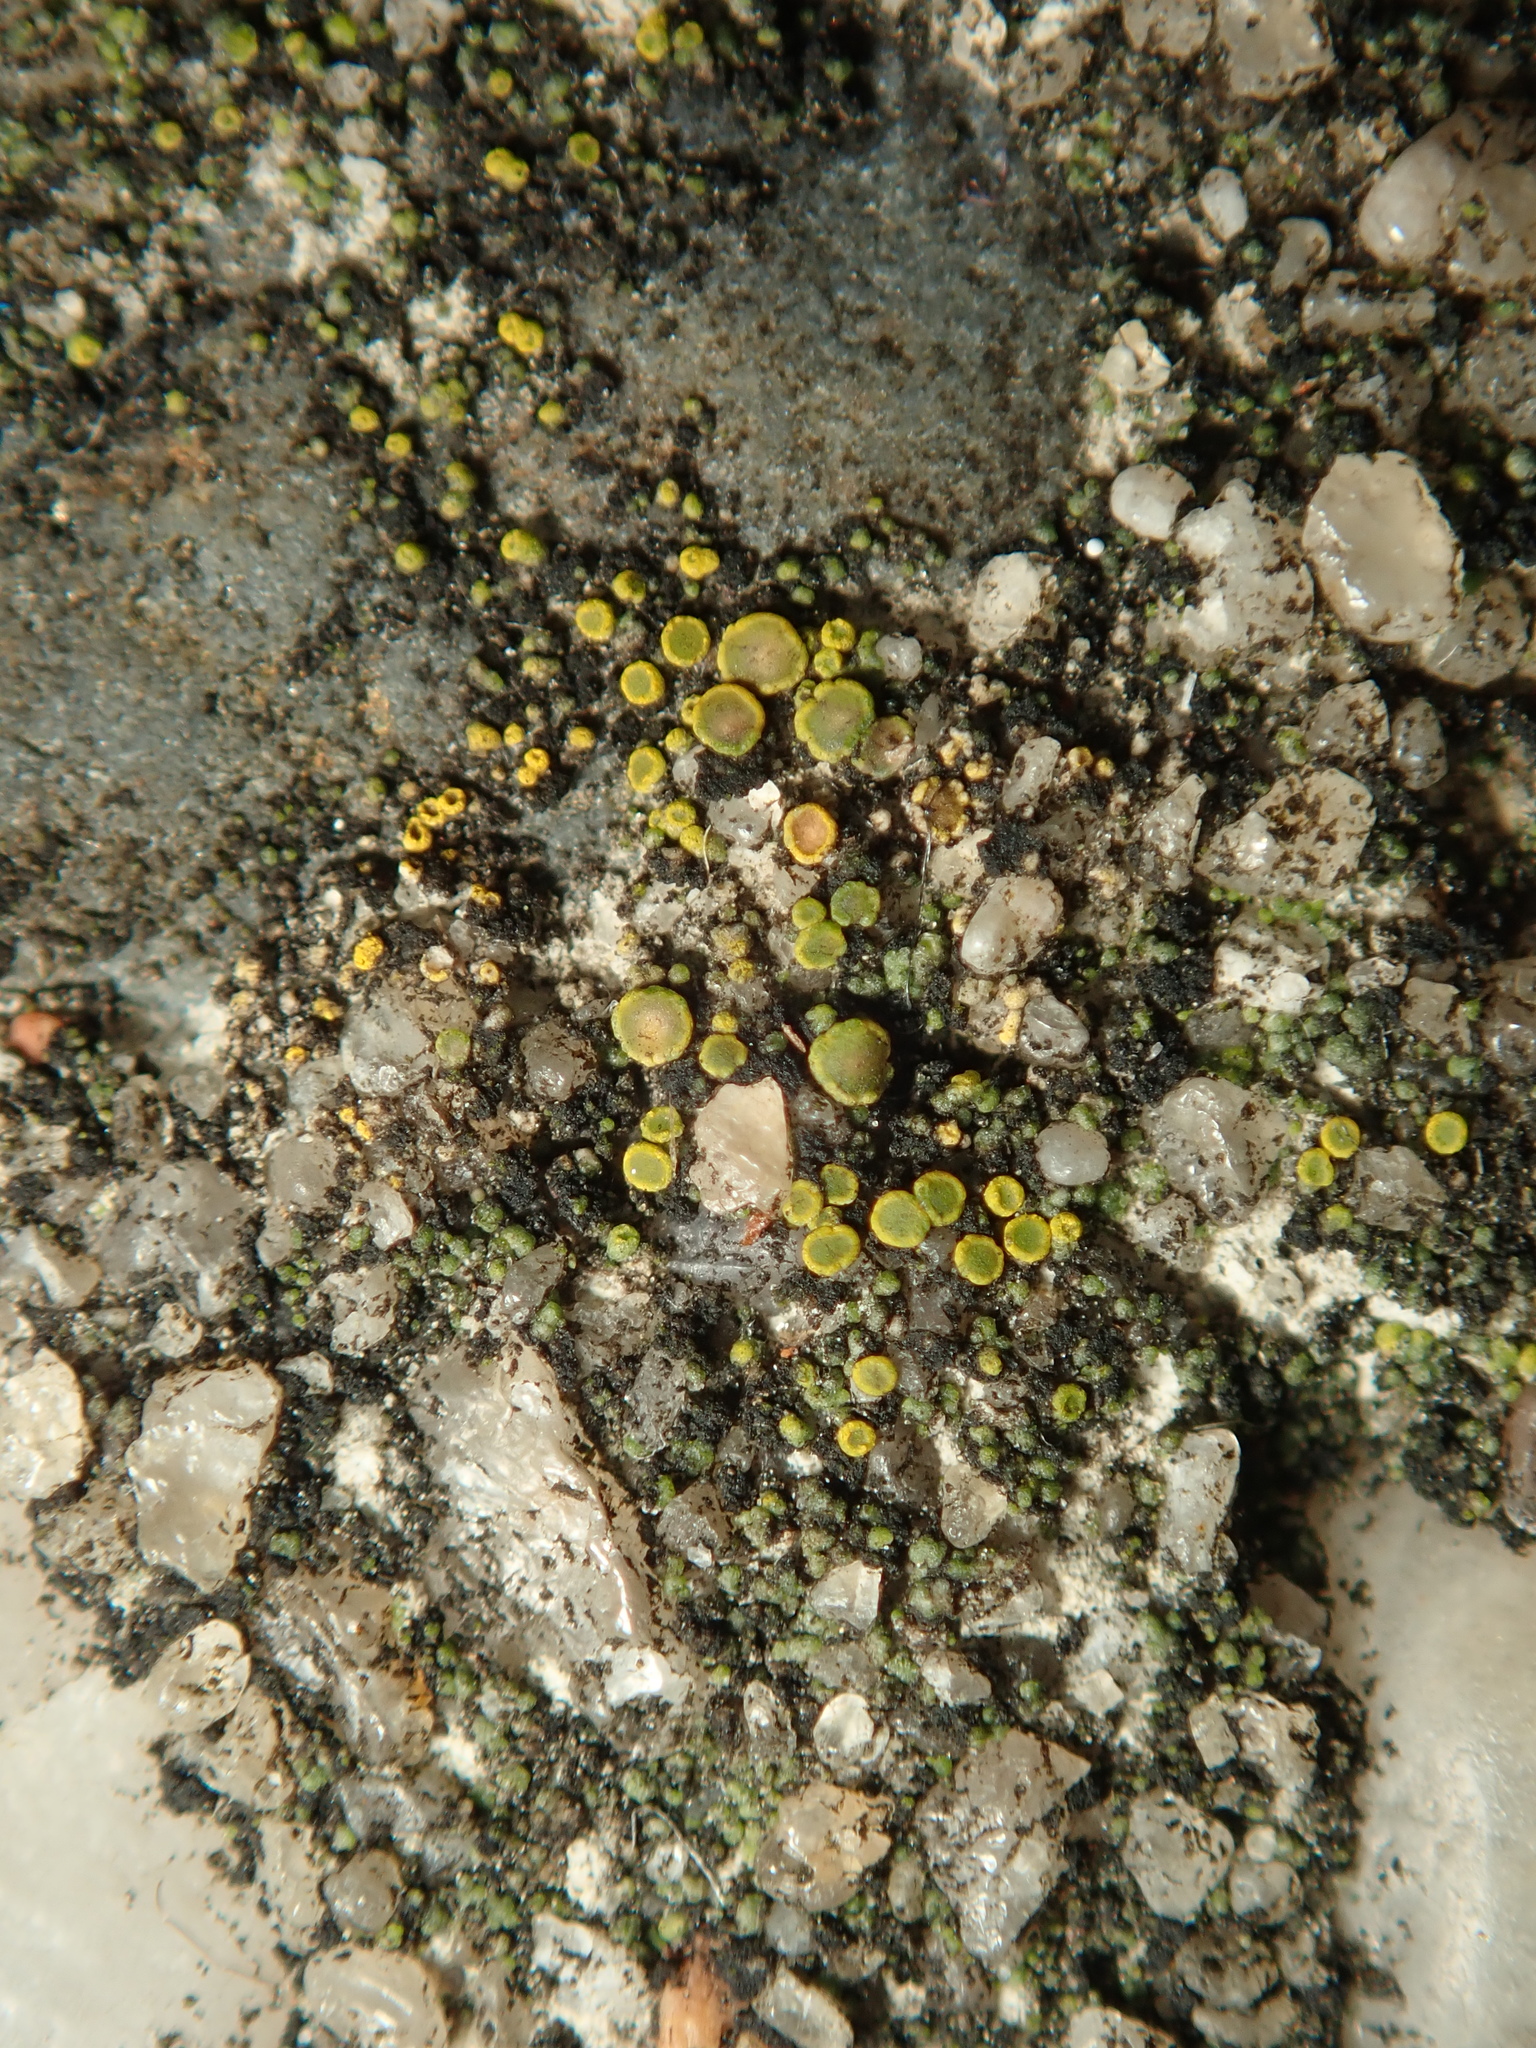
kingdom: Fungi
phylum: Ascomycota
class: Candelariomycetes
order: Candelariales
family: Candelariaceae
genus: Candelariella
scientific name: Candelariella aurella
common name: Hidden goldspeck lichen
